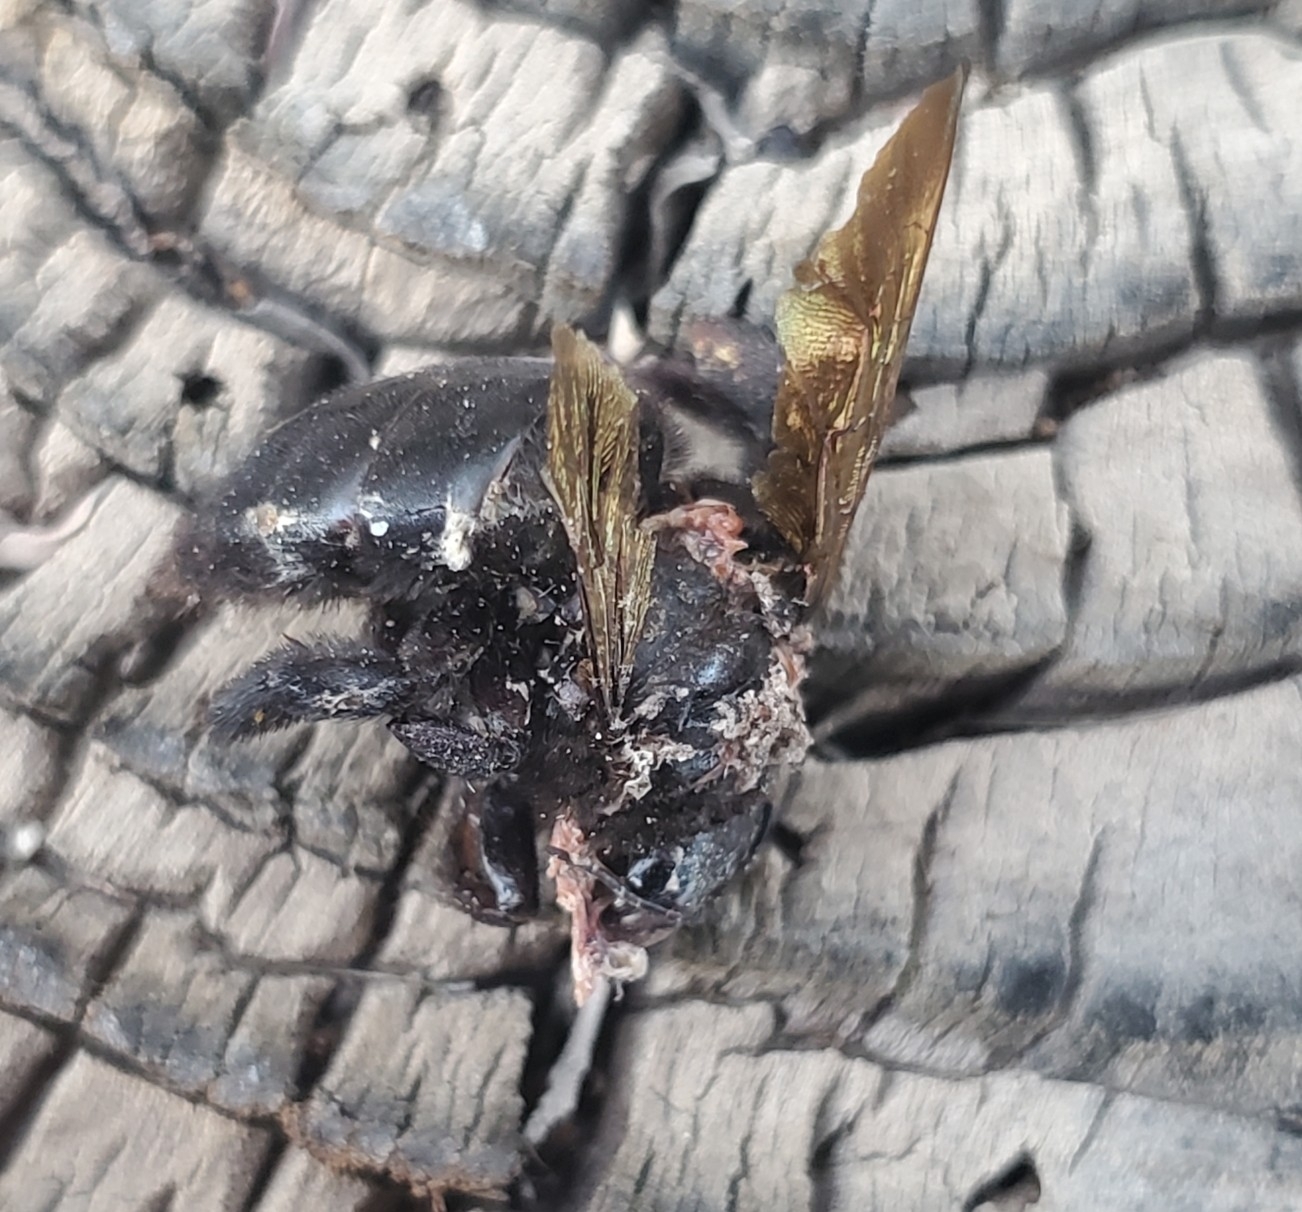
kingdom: Animalia
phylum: Arthropoda
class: Insecta
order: Hymenoptera
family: Apidae
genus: Xylocopa
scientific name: Xylocopa sonorina
